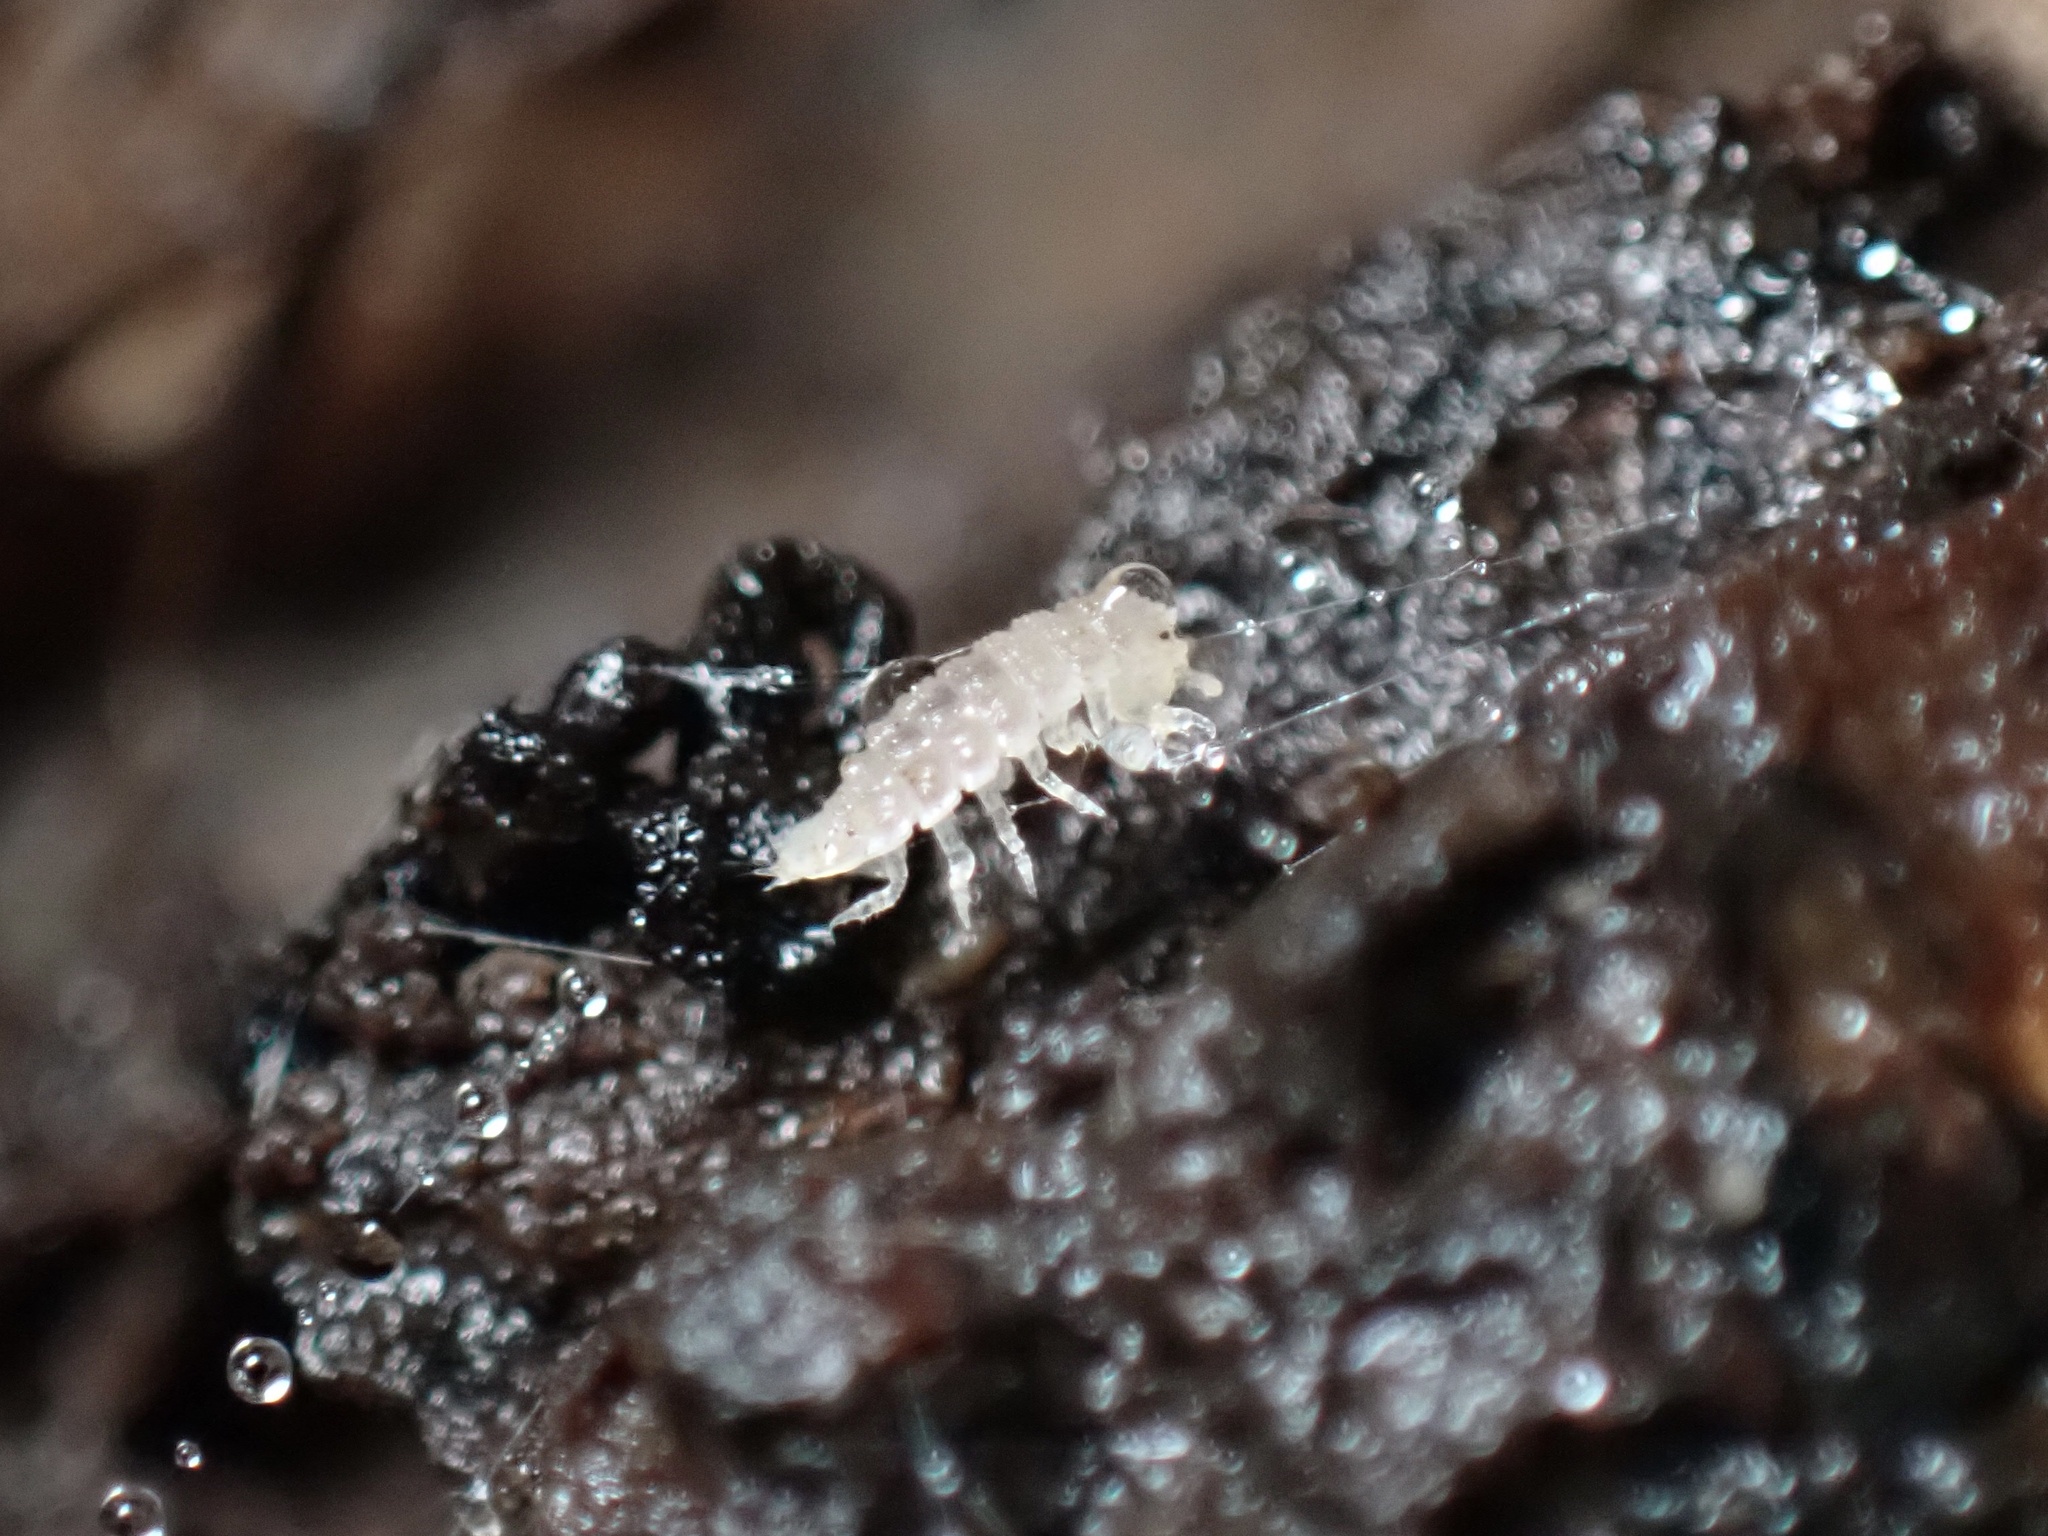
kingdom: Animalia
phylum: Arthropoda
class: Malacostraca
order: Isopoda
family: Trichoniscidae
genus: Haplophthalmus
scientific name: Haplophthalmus danicus
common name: Pillbug
